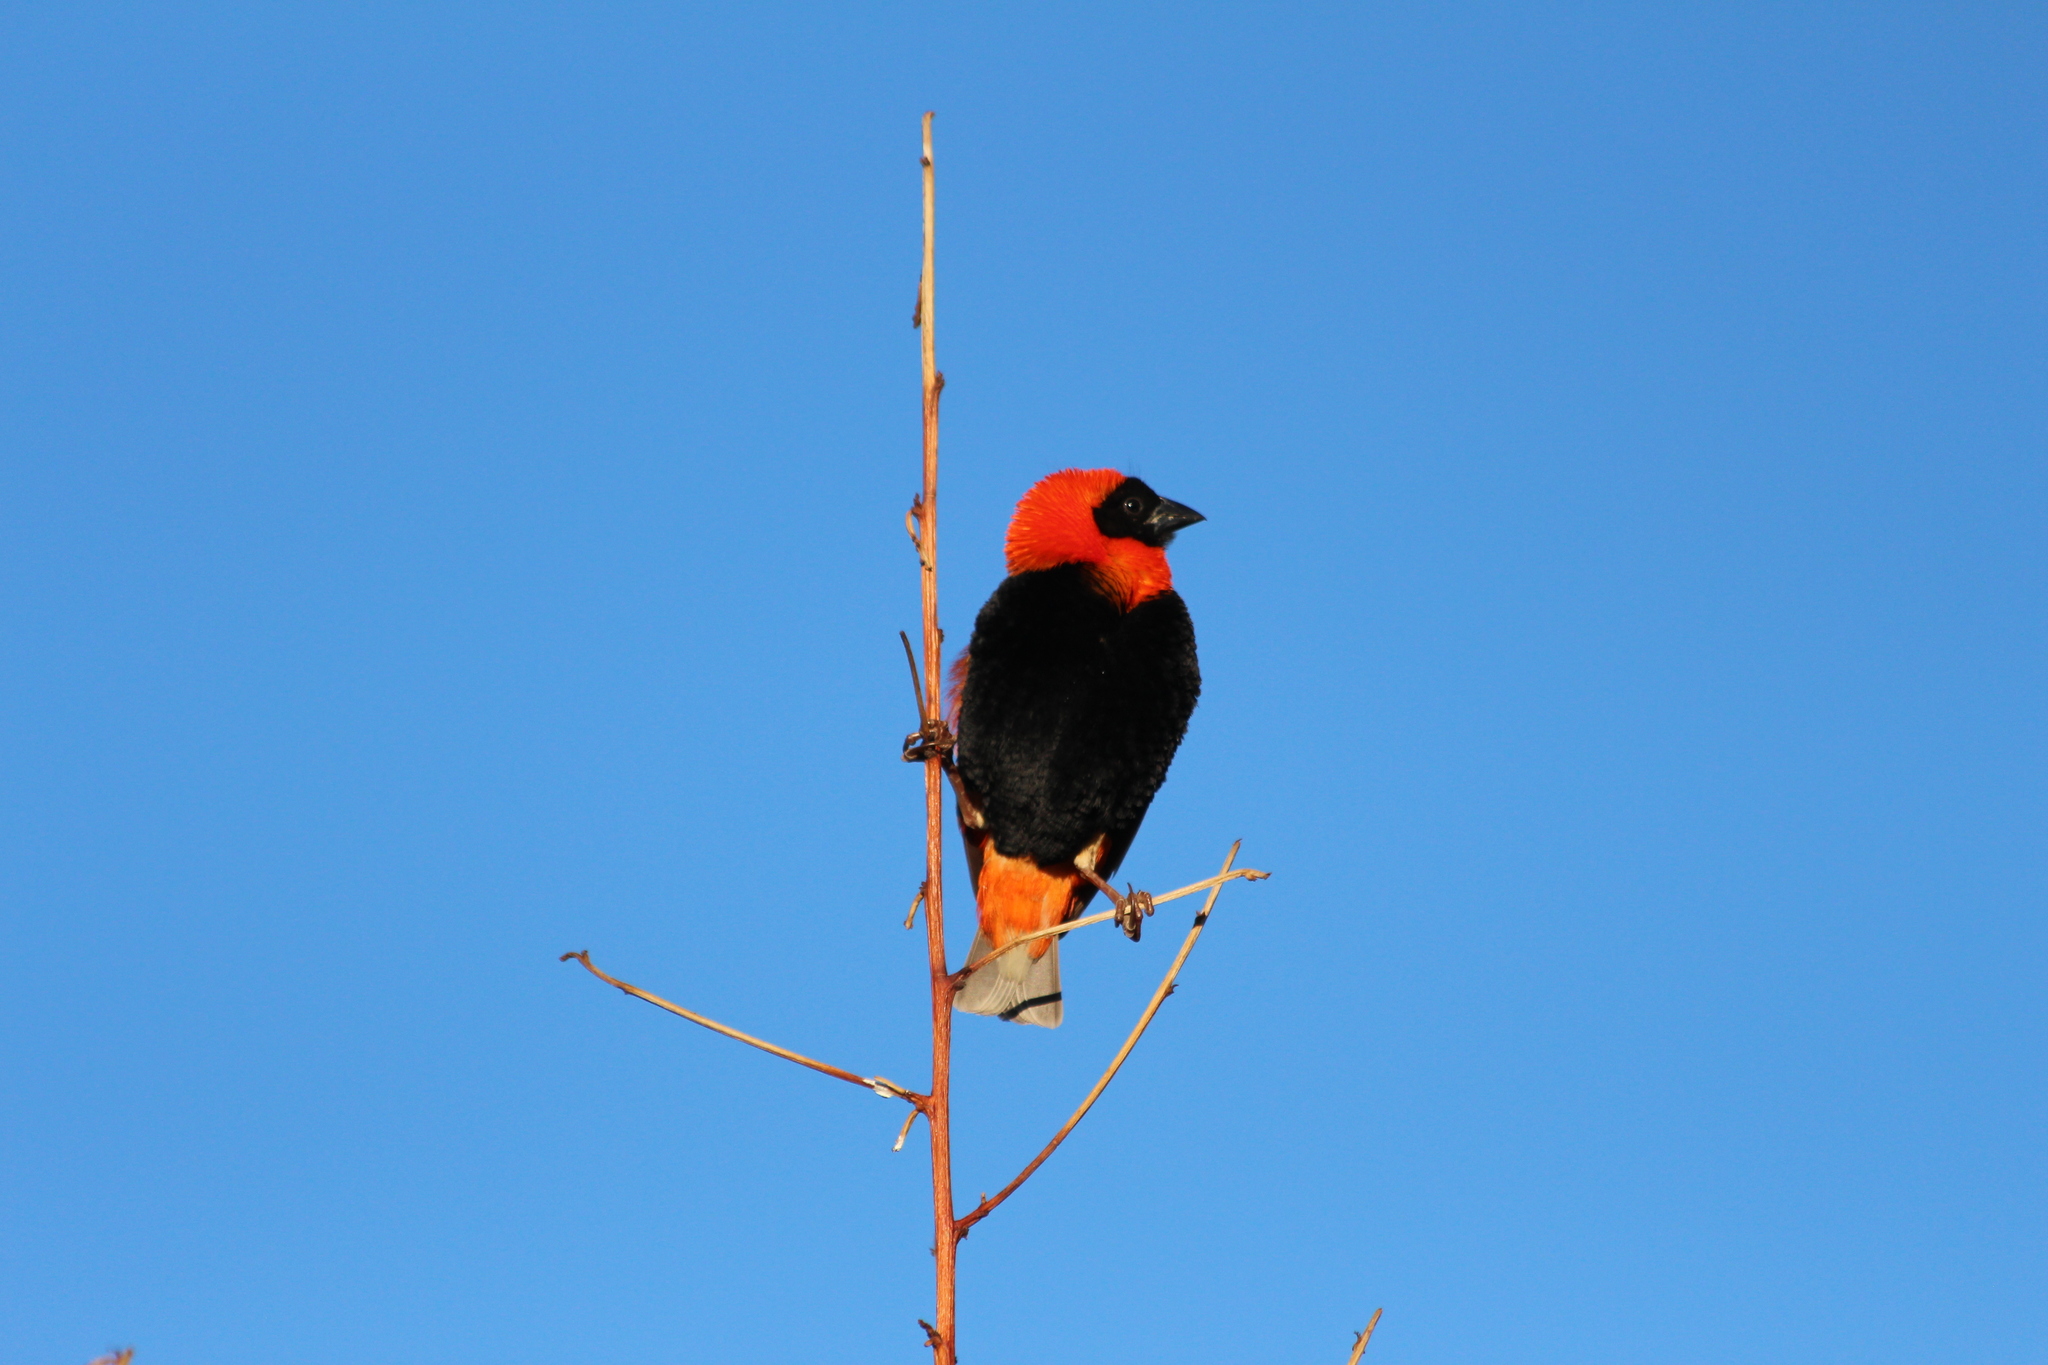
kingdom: Animalia
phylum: Chordata
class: Aves
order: Passeriformes
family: Ploceidae
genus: Euplectes
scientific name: Euplectes orix
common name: Southern red bishop
